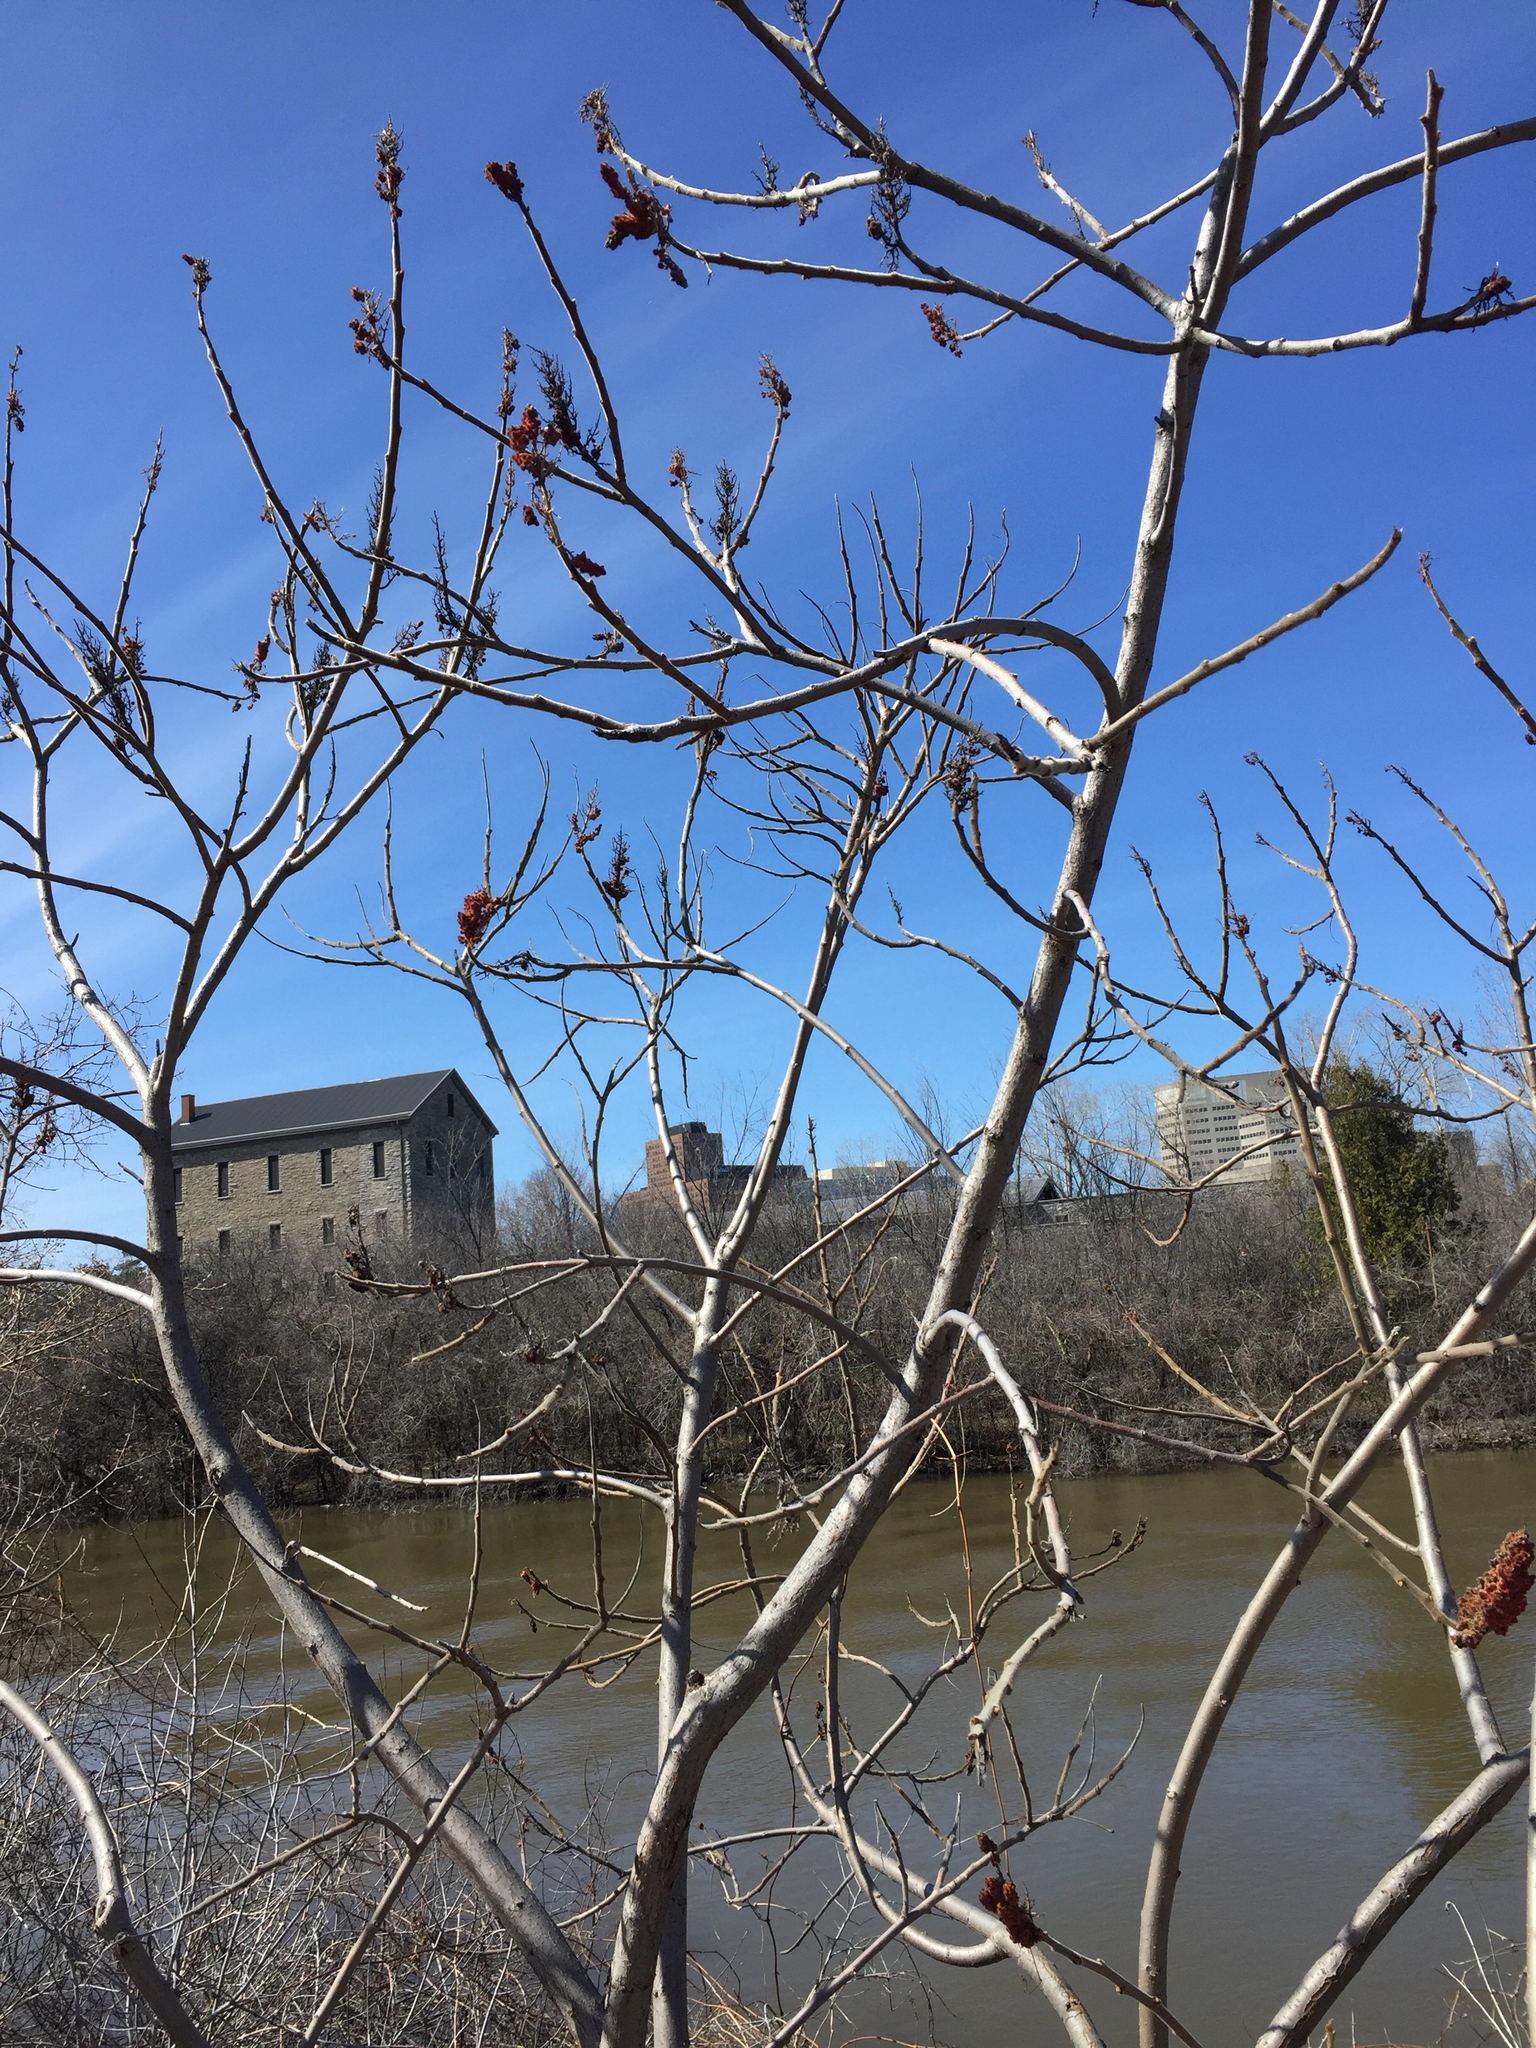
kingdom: Plantae
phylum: Tracheophyta
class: Magnoliopsida
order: Sapindales
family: Anacardiaceae
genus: Rhus
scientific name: Rhus typhina
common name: Staghorn sumac
